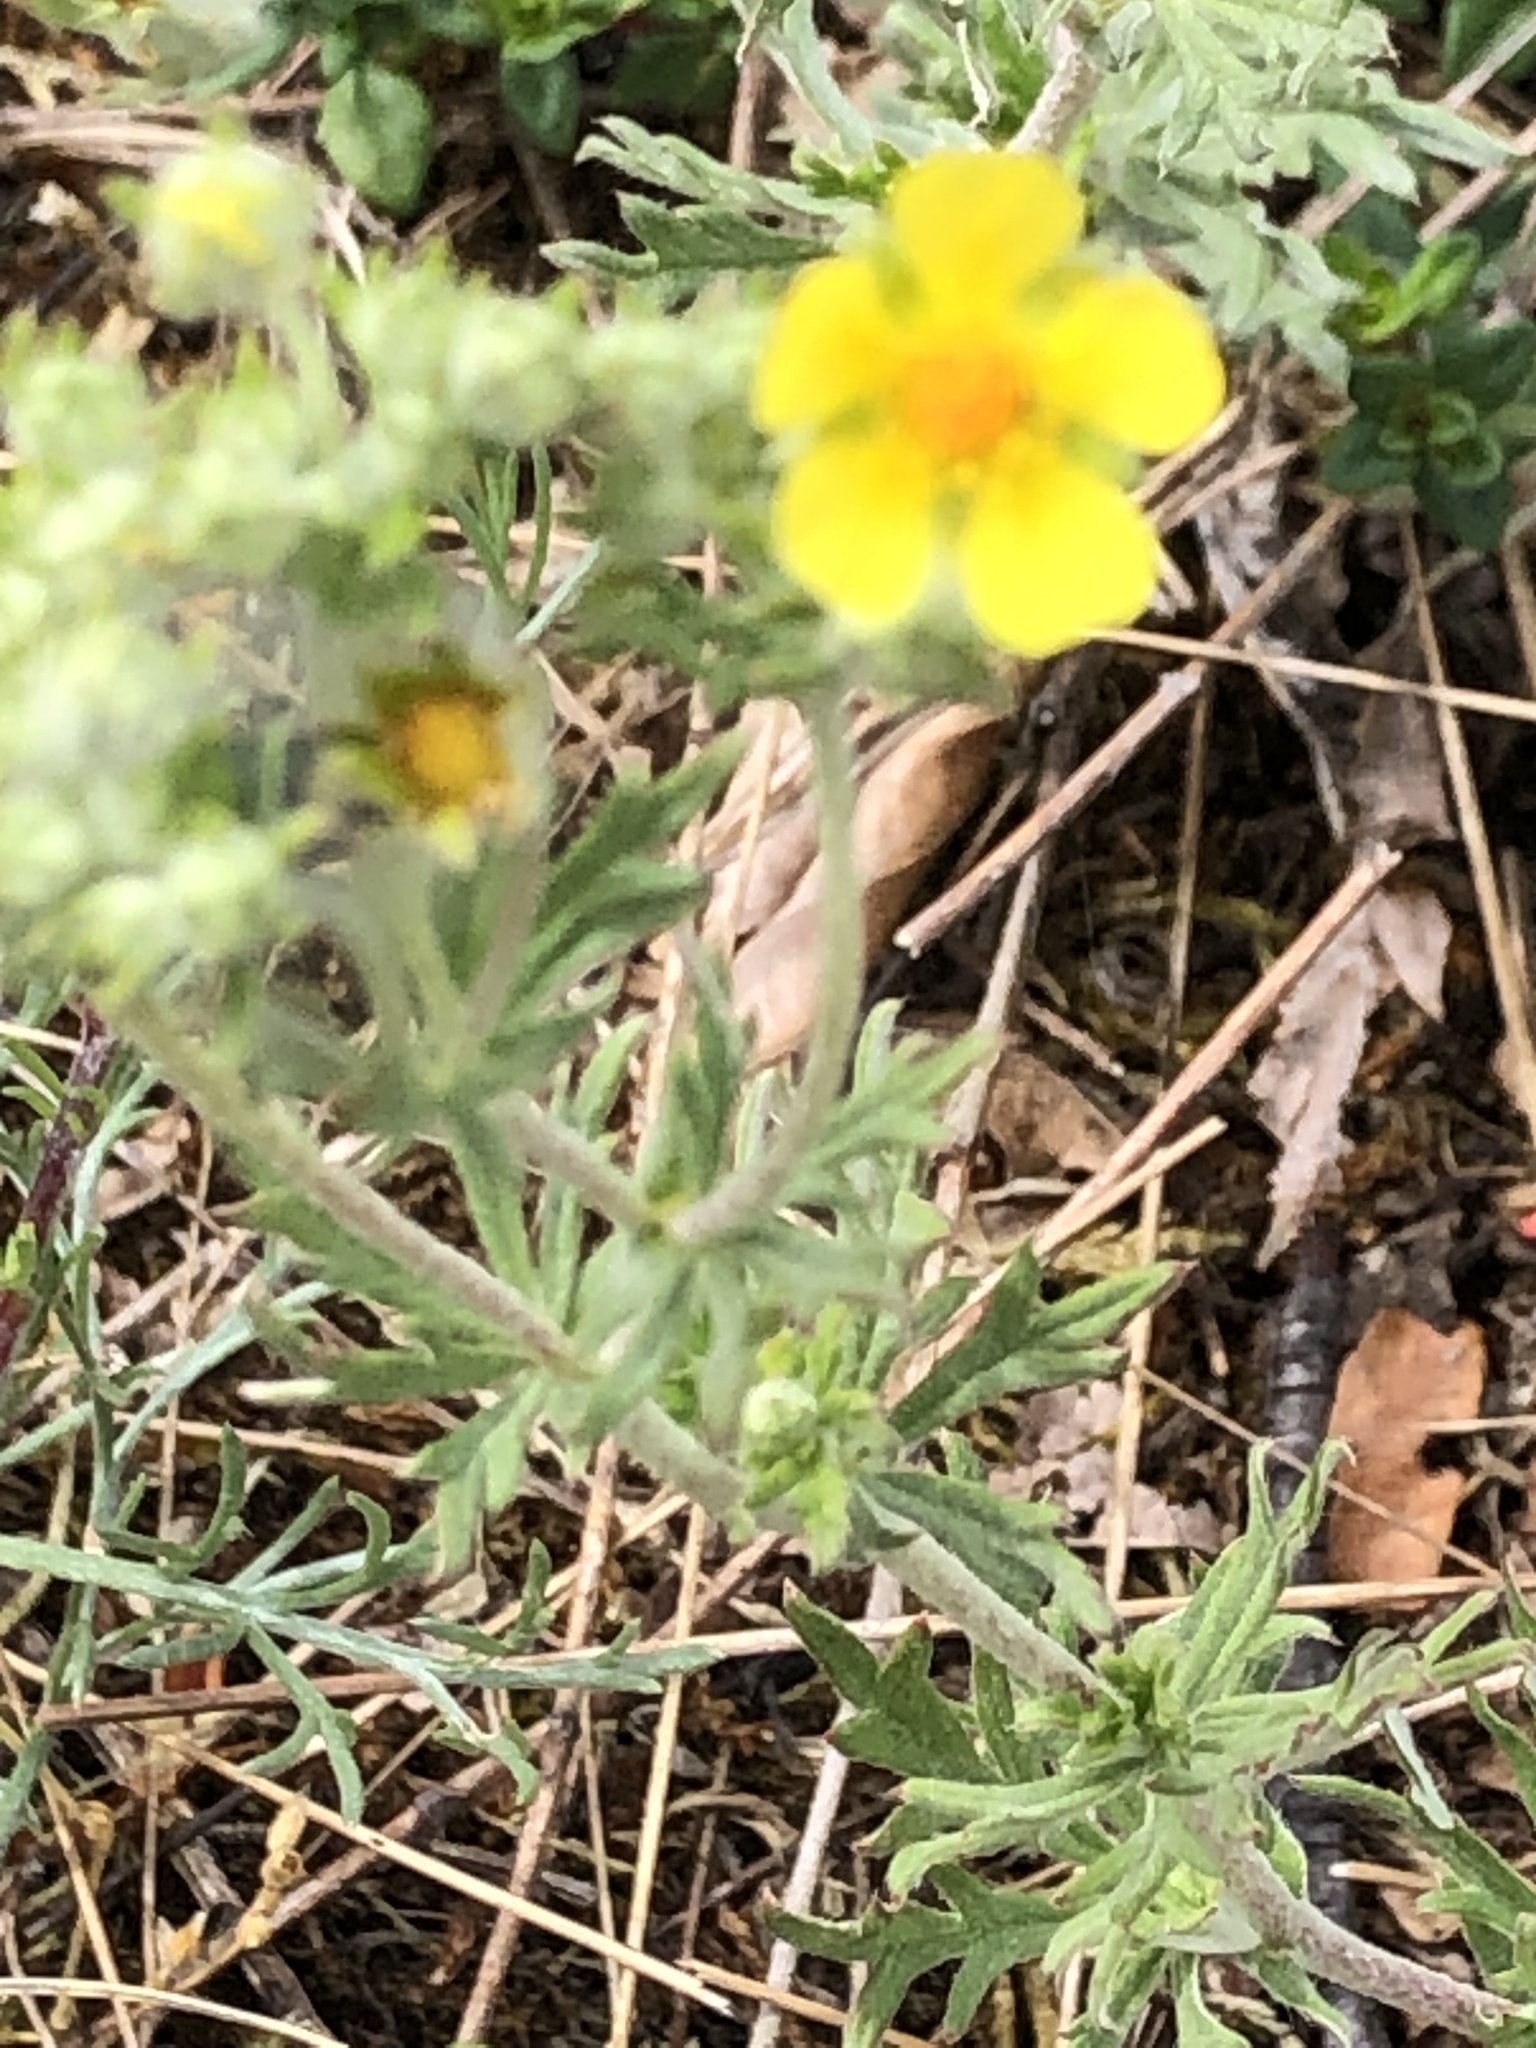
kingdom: Plantae
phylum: Tracheophyta
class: Magnoliopsida
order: Rosales
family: Rosaceae
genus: Potentilla
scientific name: Potentilla argentea
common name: Hoary cinquefoil
